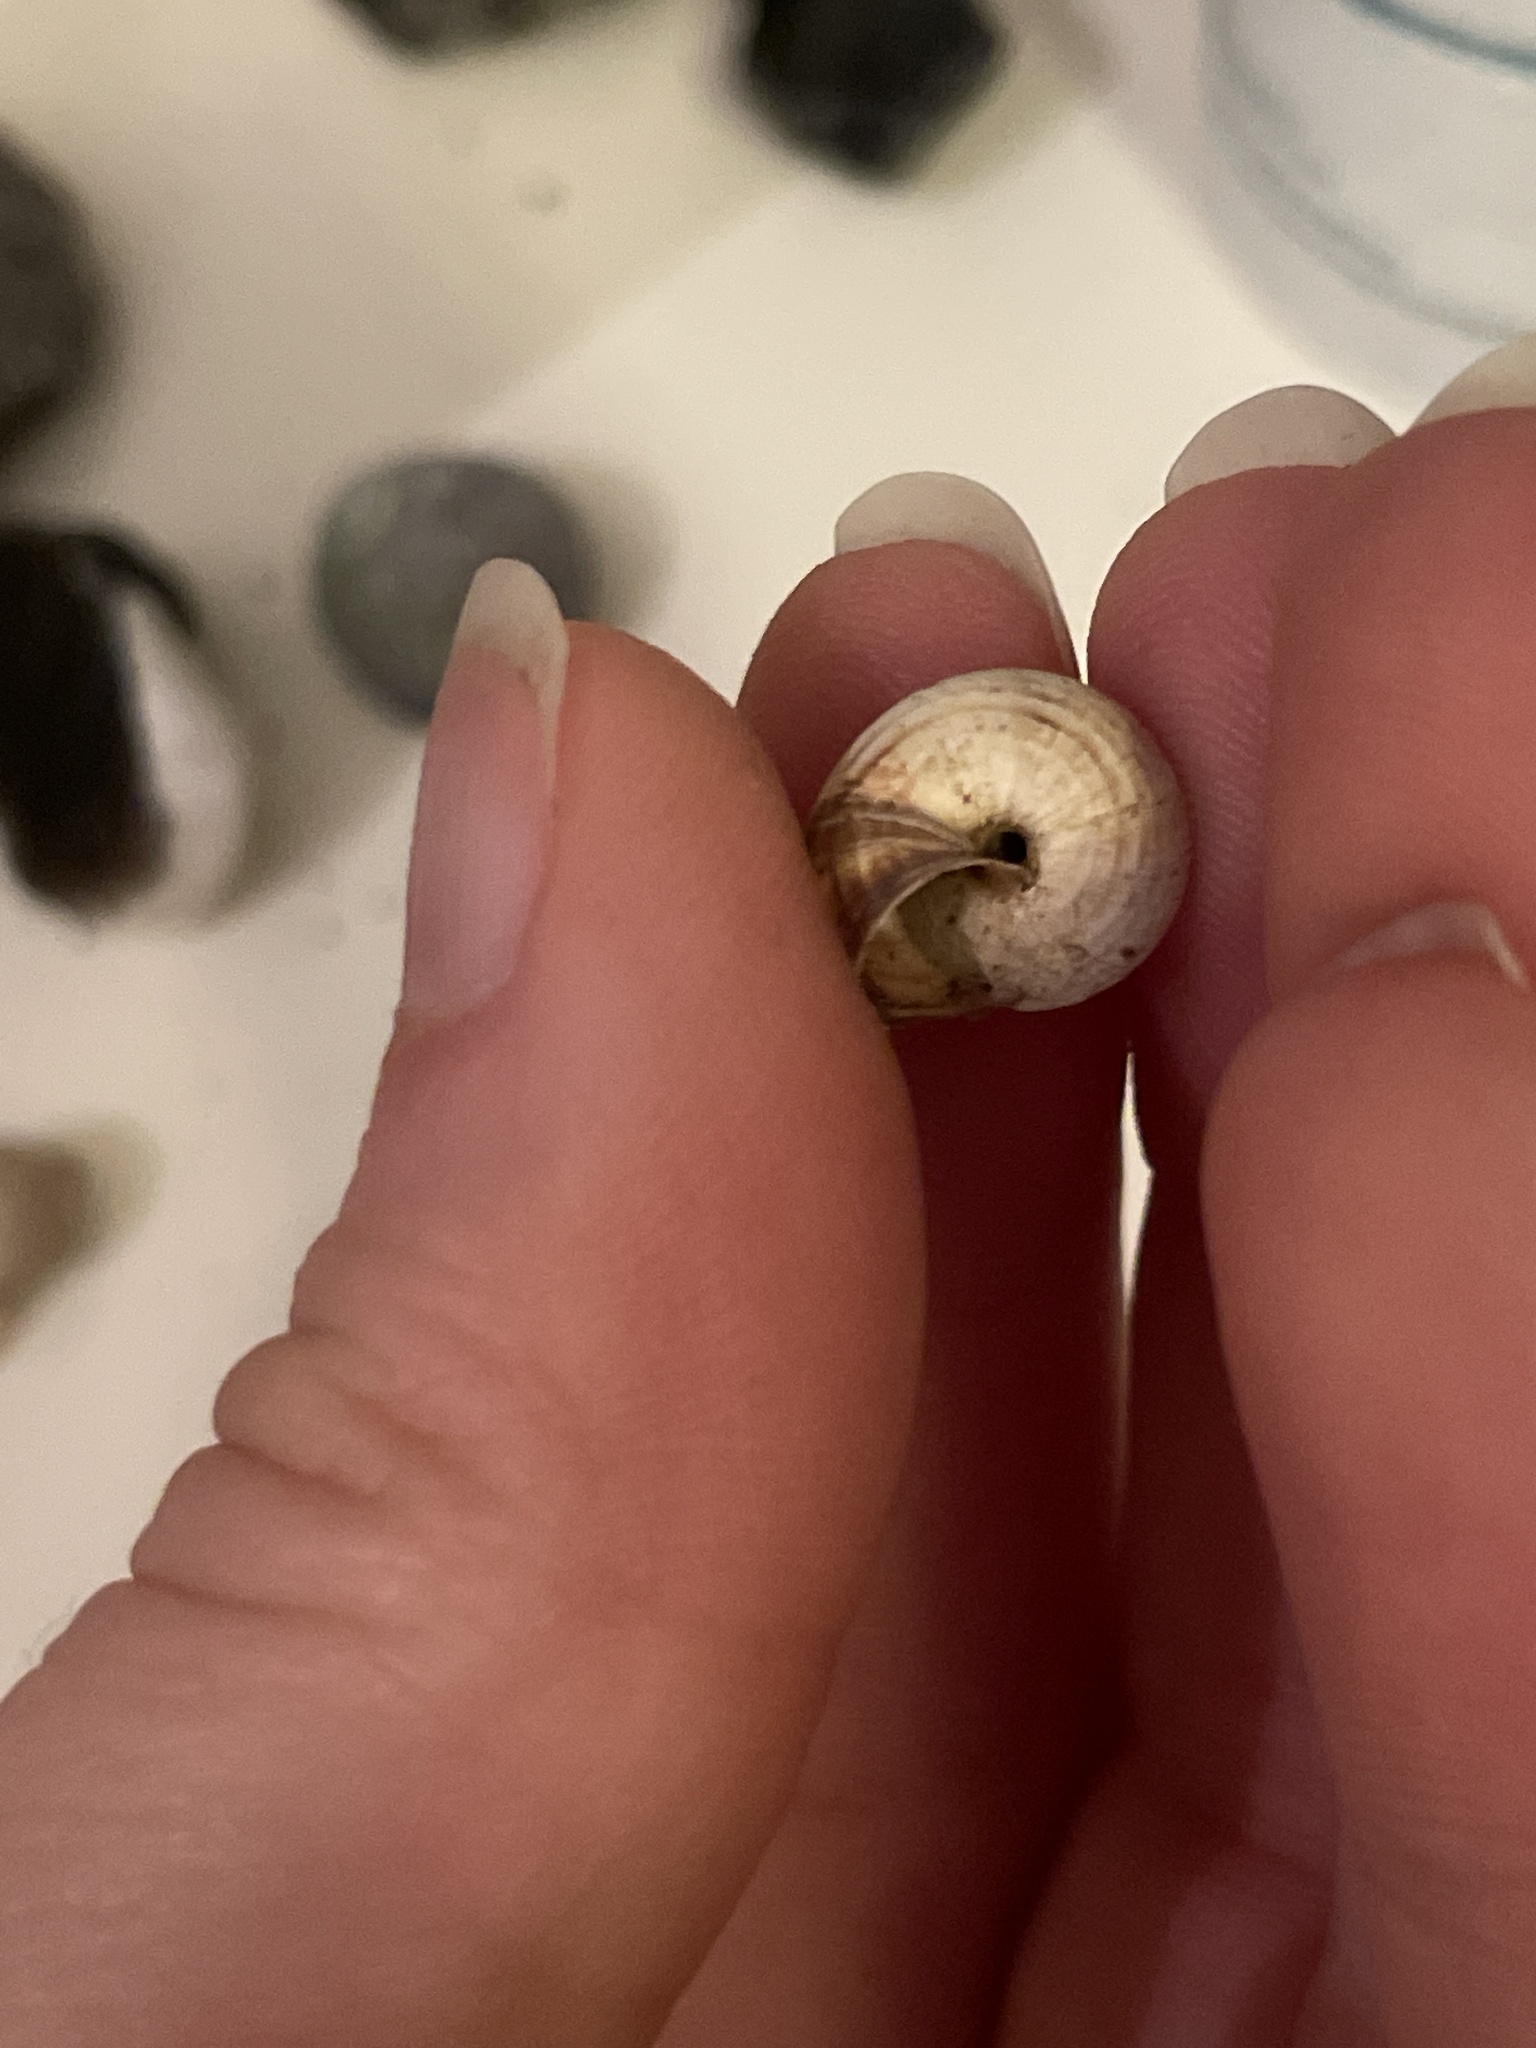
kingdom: Animalia
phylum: Mollusca
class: Gastropoda
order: Stylommatophora
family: Geomitridae
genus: Cernuella
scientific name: Cernuella virgata
